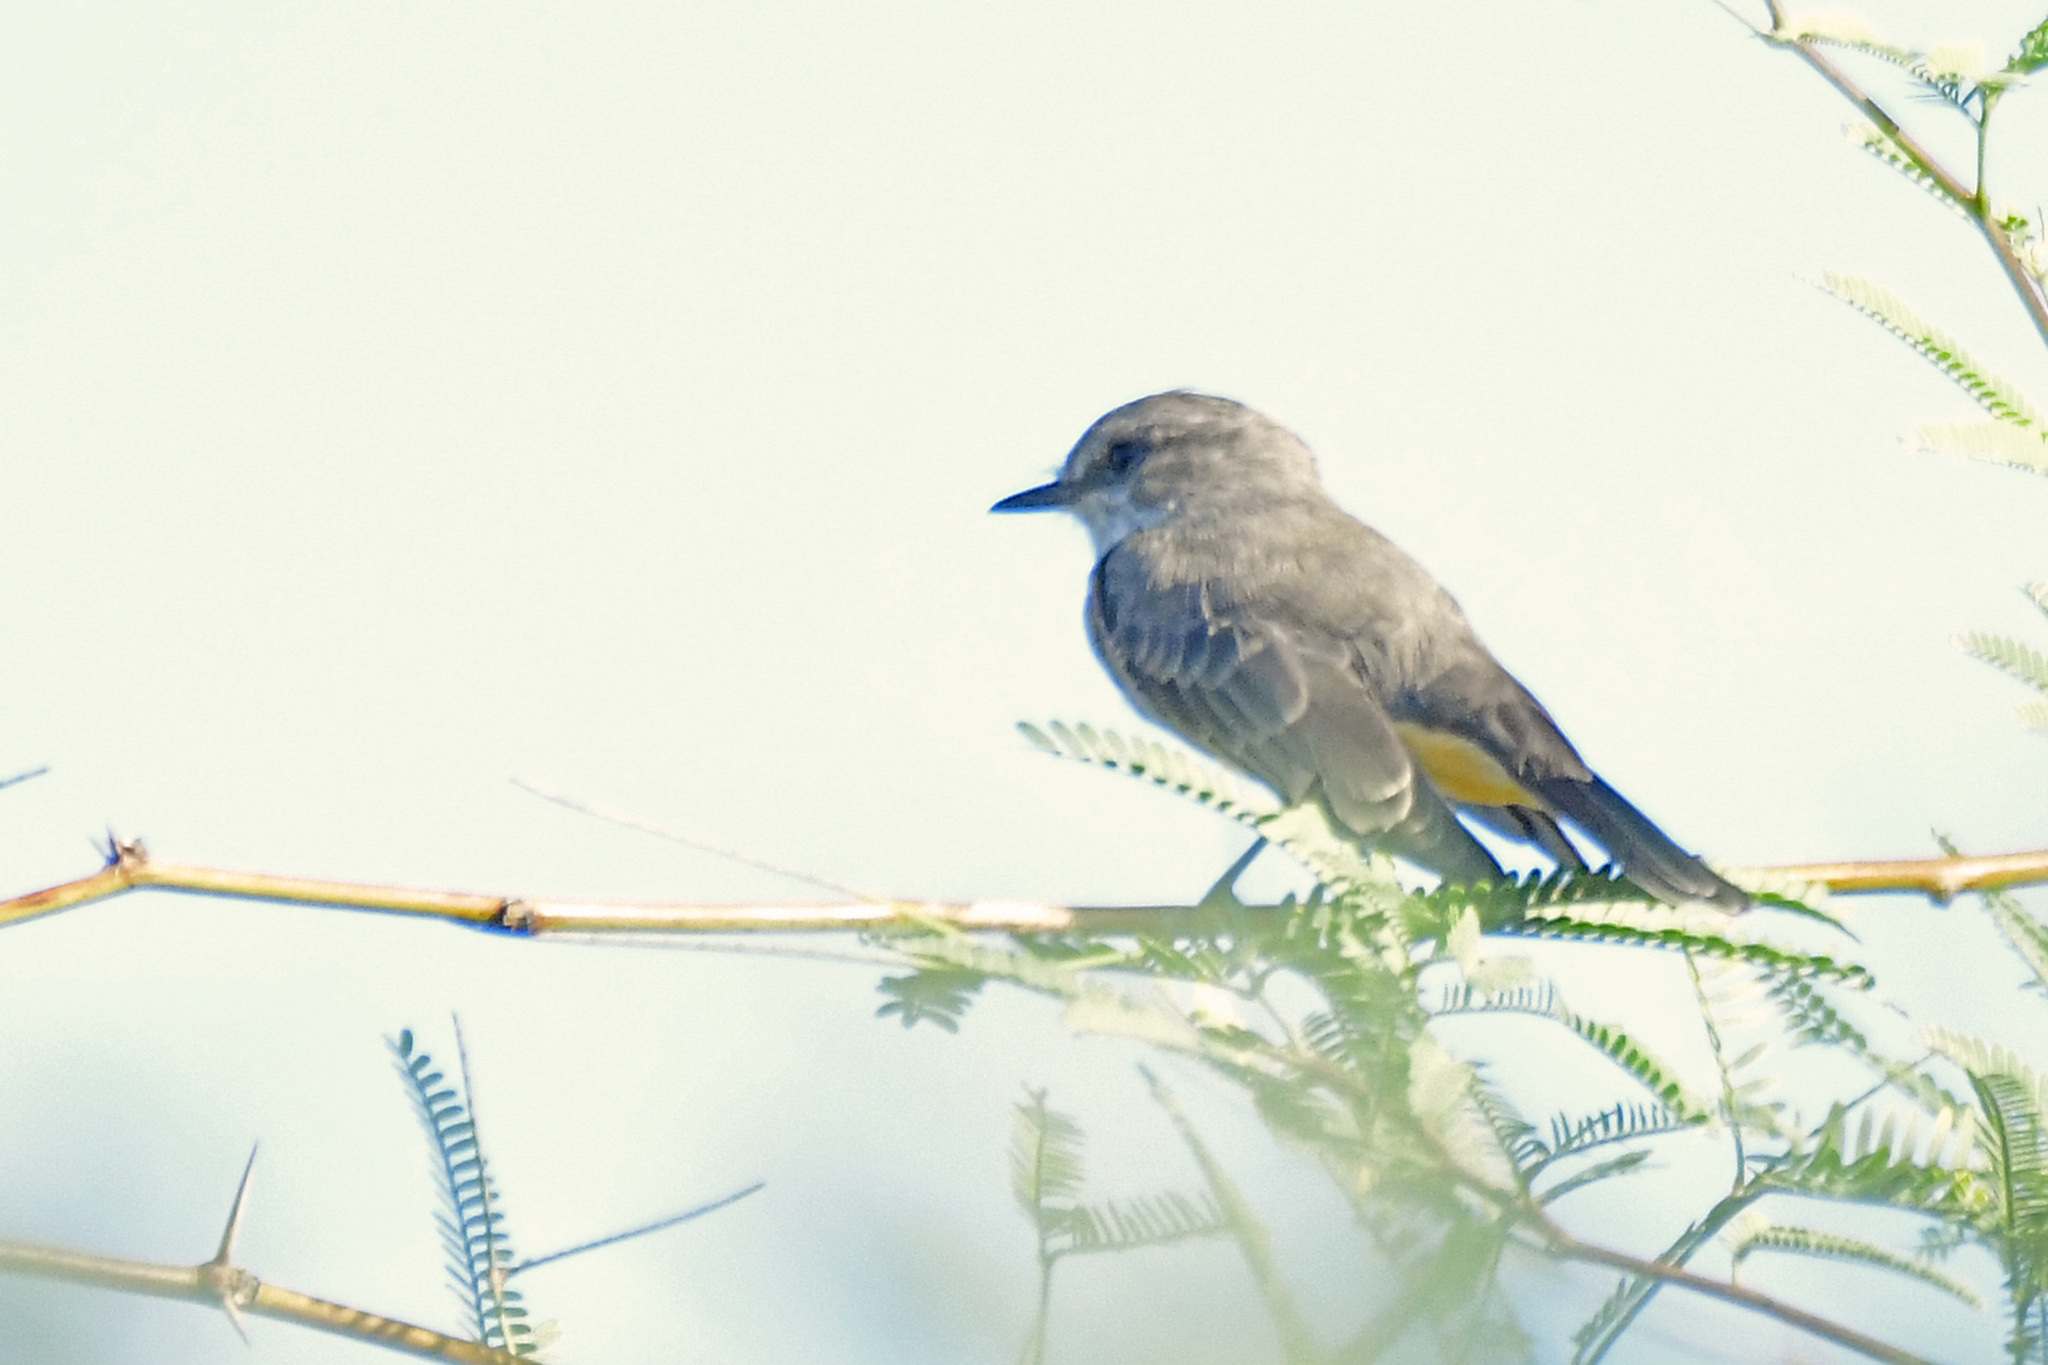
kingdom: Animalia
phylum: Chordata
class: Aves
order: Passeriformes
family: Tyrannidae
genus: Pyrocephalus
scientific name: Pyrocephalus rubinus
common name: Vermilion flycatcher
